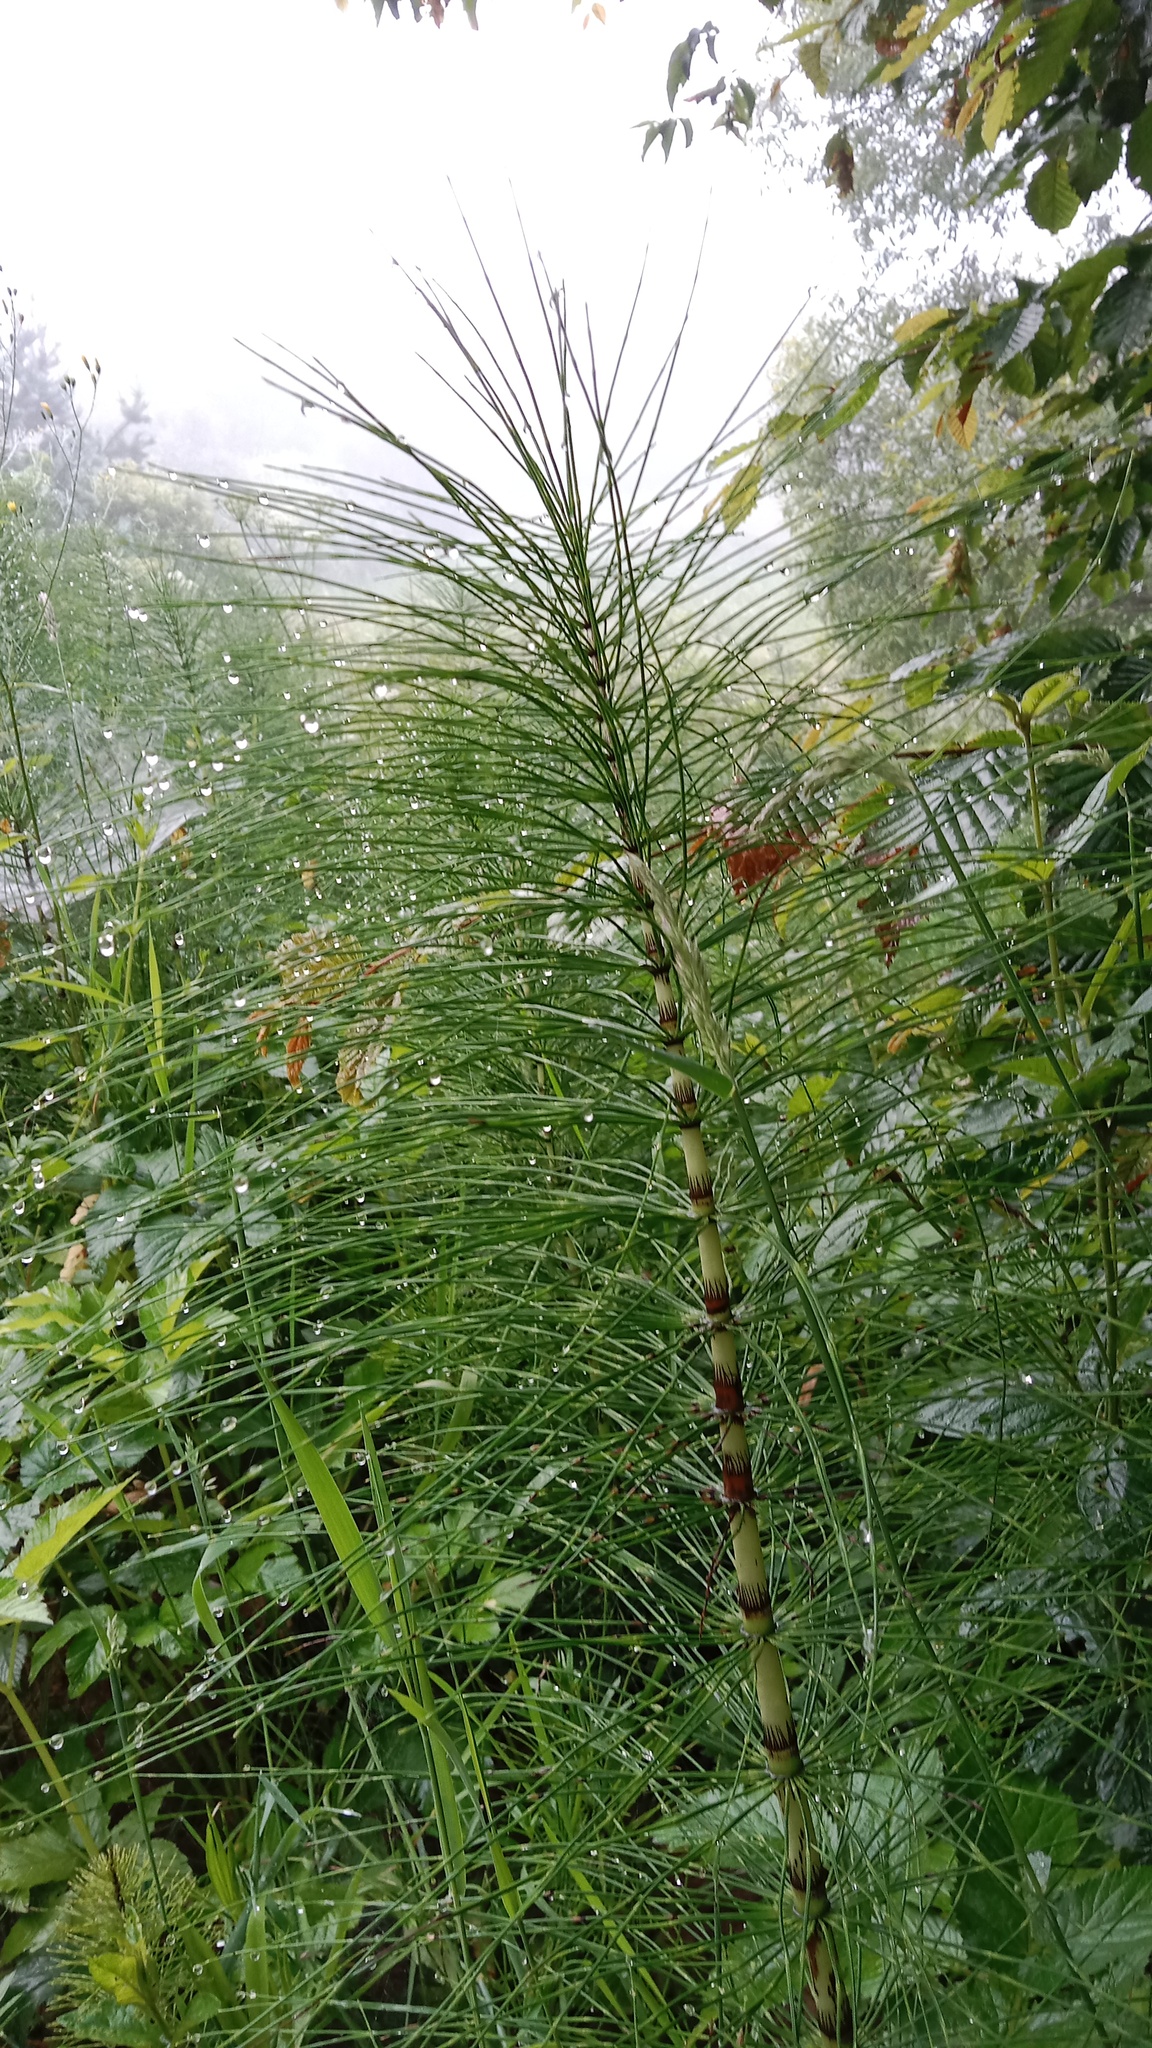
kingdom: Plantae
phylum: Tracheophyta
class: Polypodiopsida
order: Equisetales
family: Equisetaceae
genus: Equisetum
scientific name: Equisetum telmateia
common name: Great horsetail
